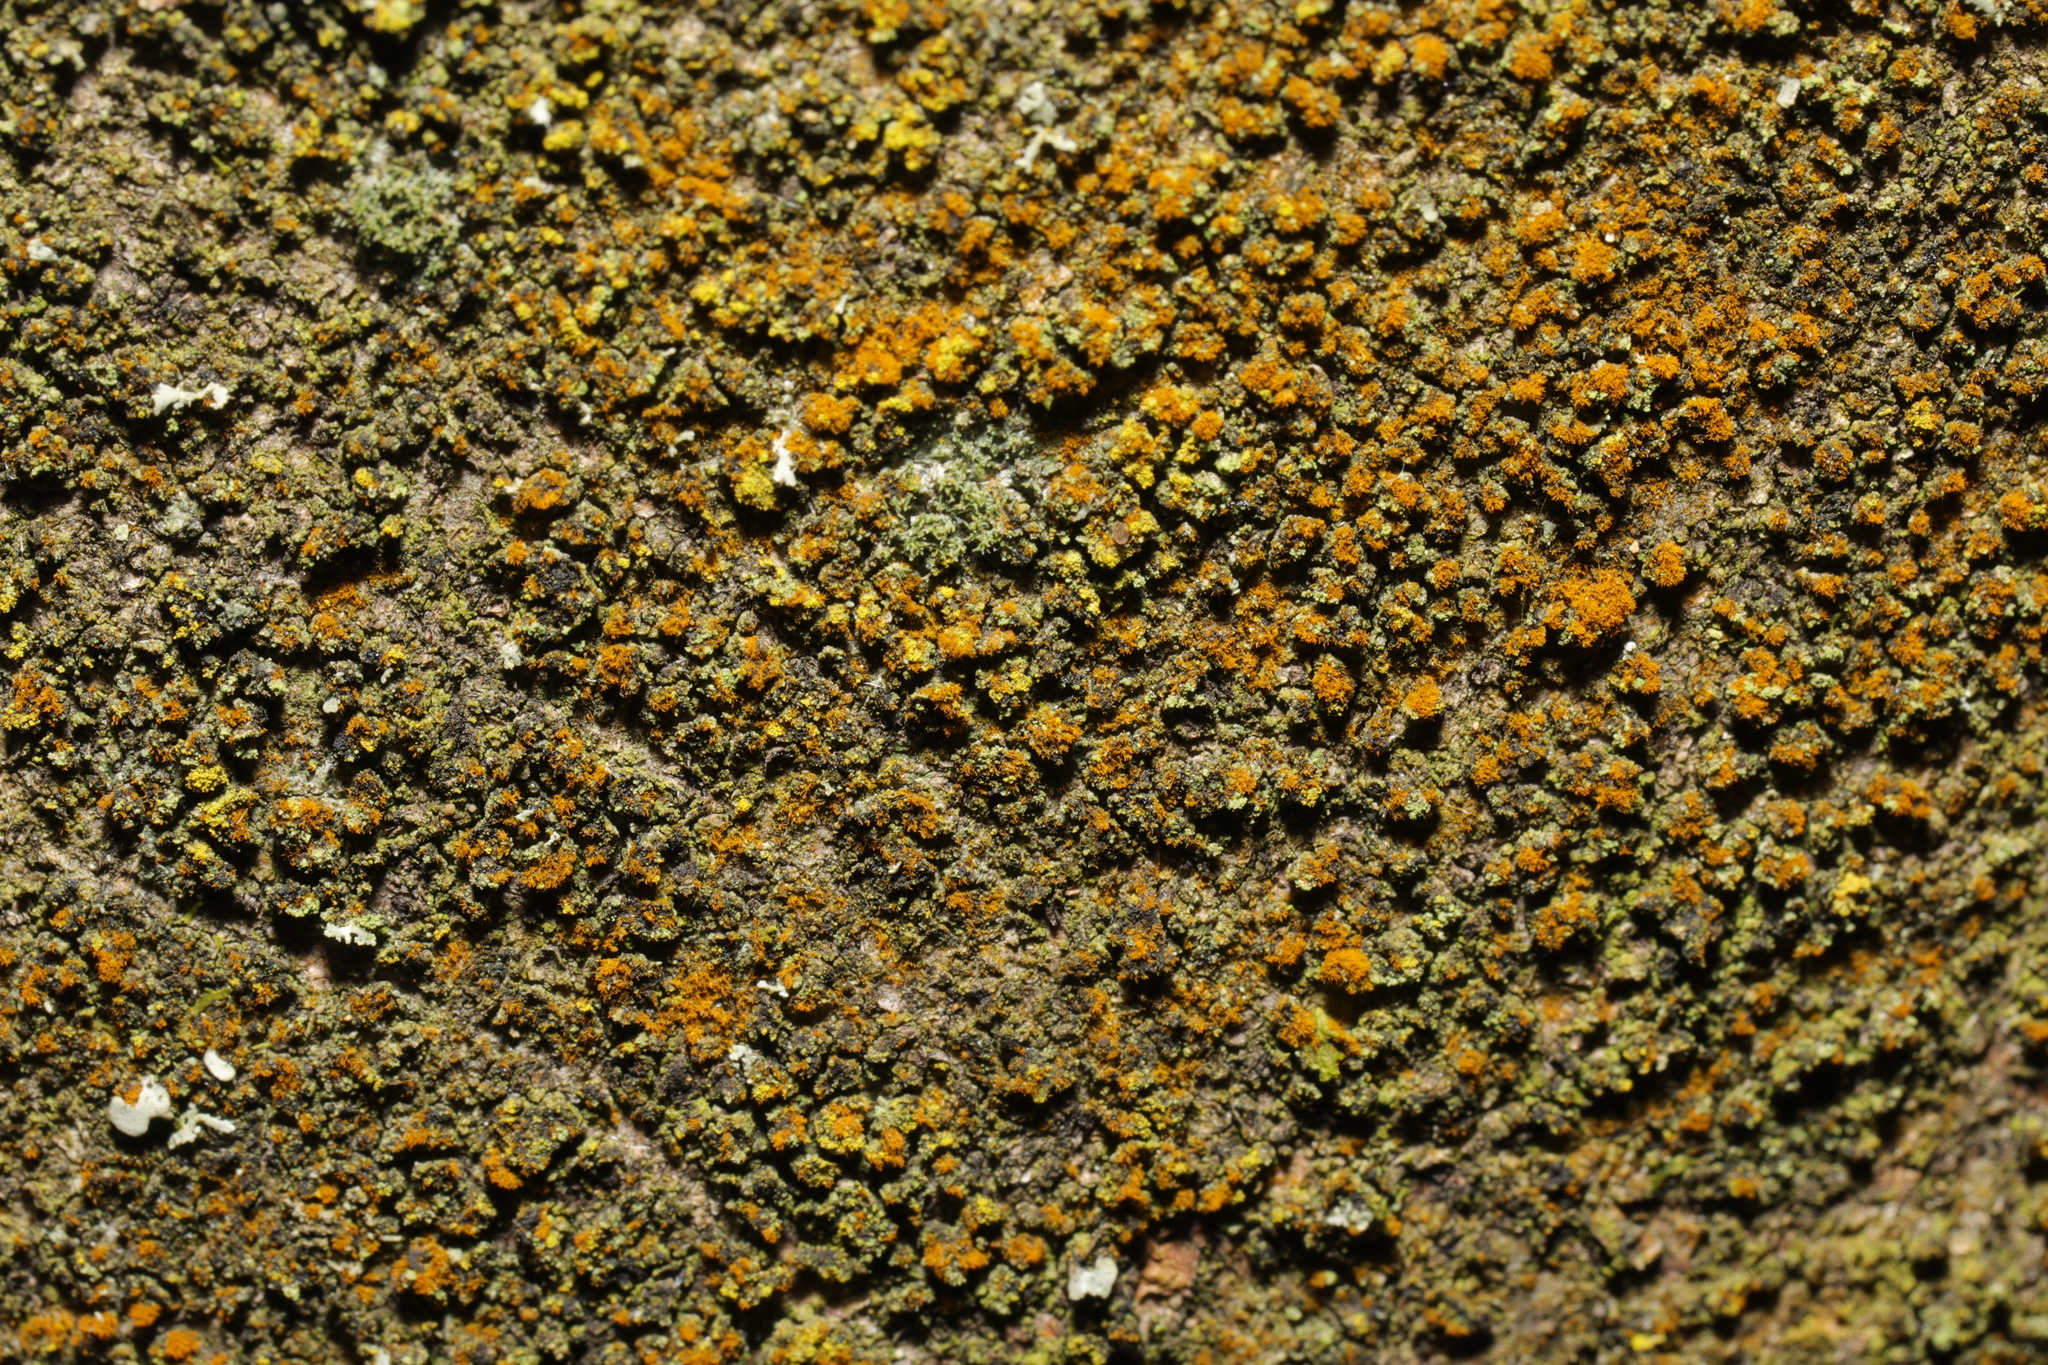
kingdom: Plantae
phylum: Chlorophyta
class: Ulvophyceae
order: Trentepohliales
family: Trentepohliaceae
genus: Trentepohlia
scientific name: Trentepohlia
